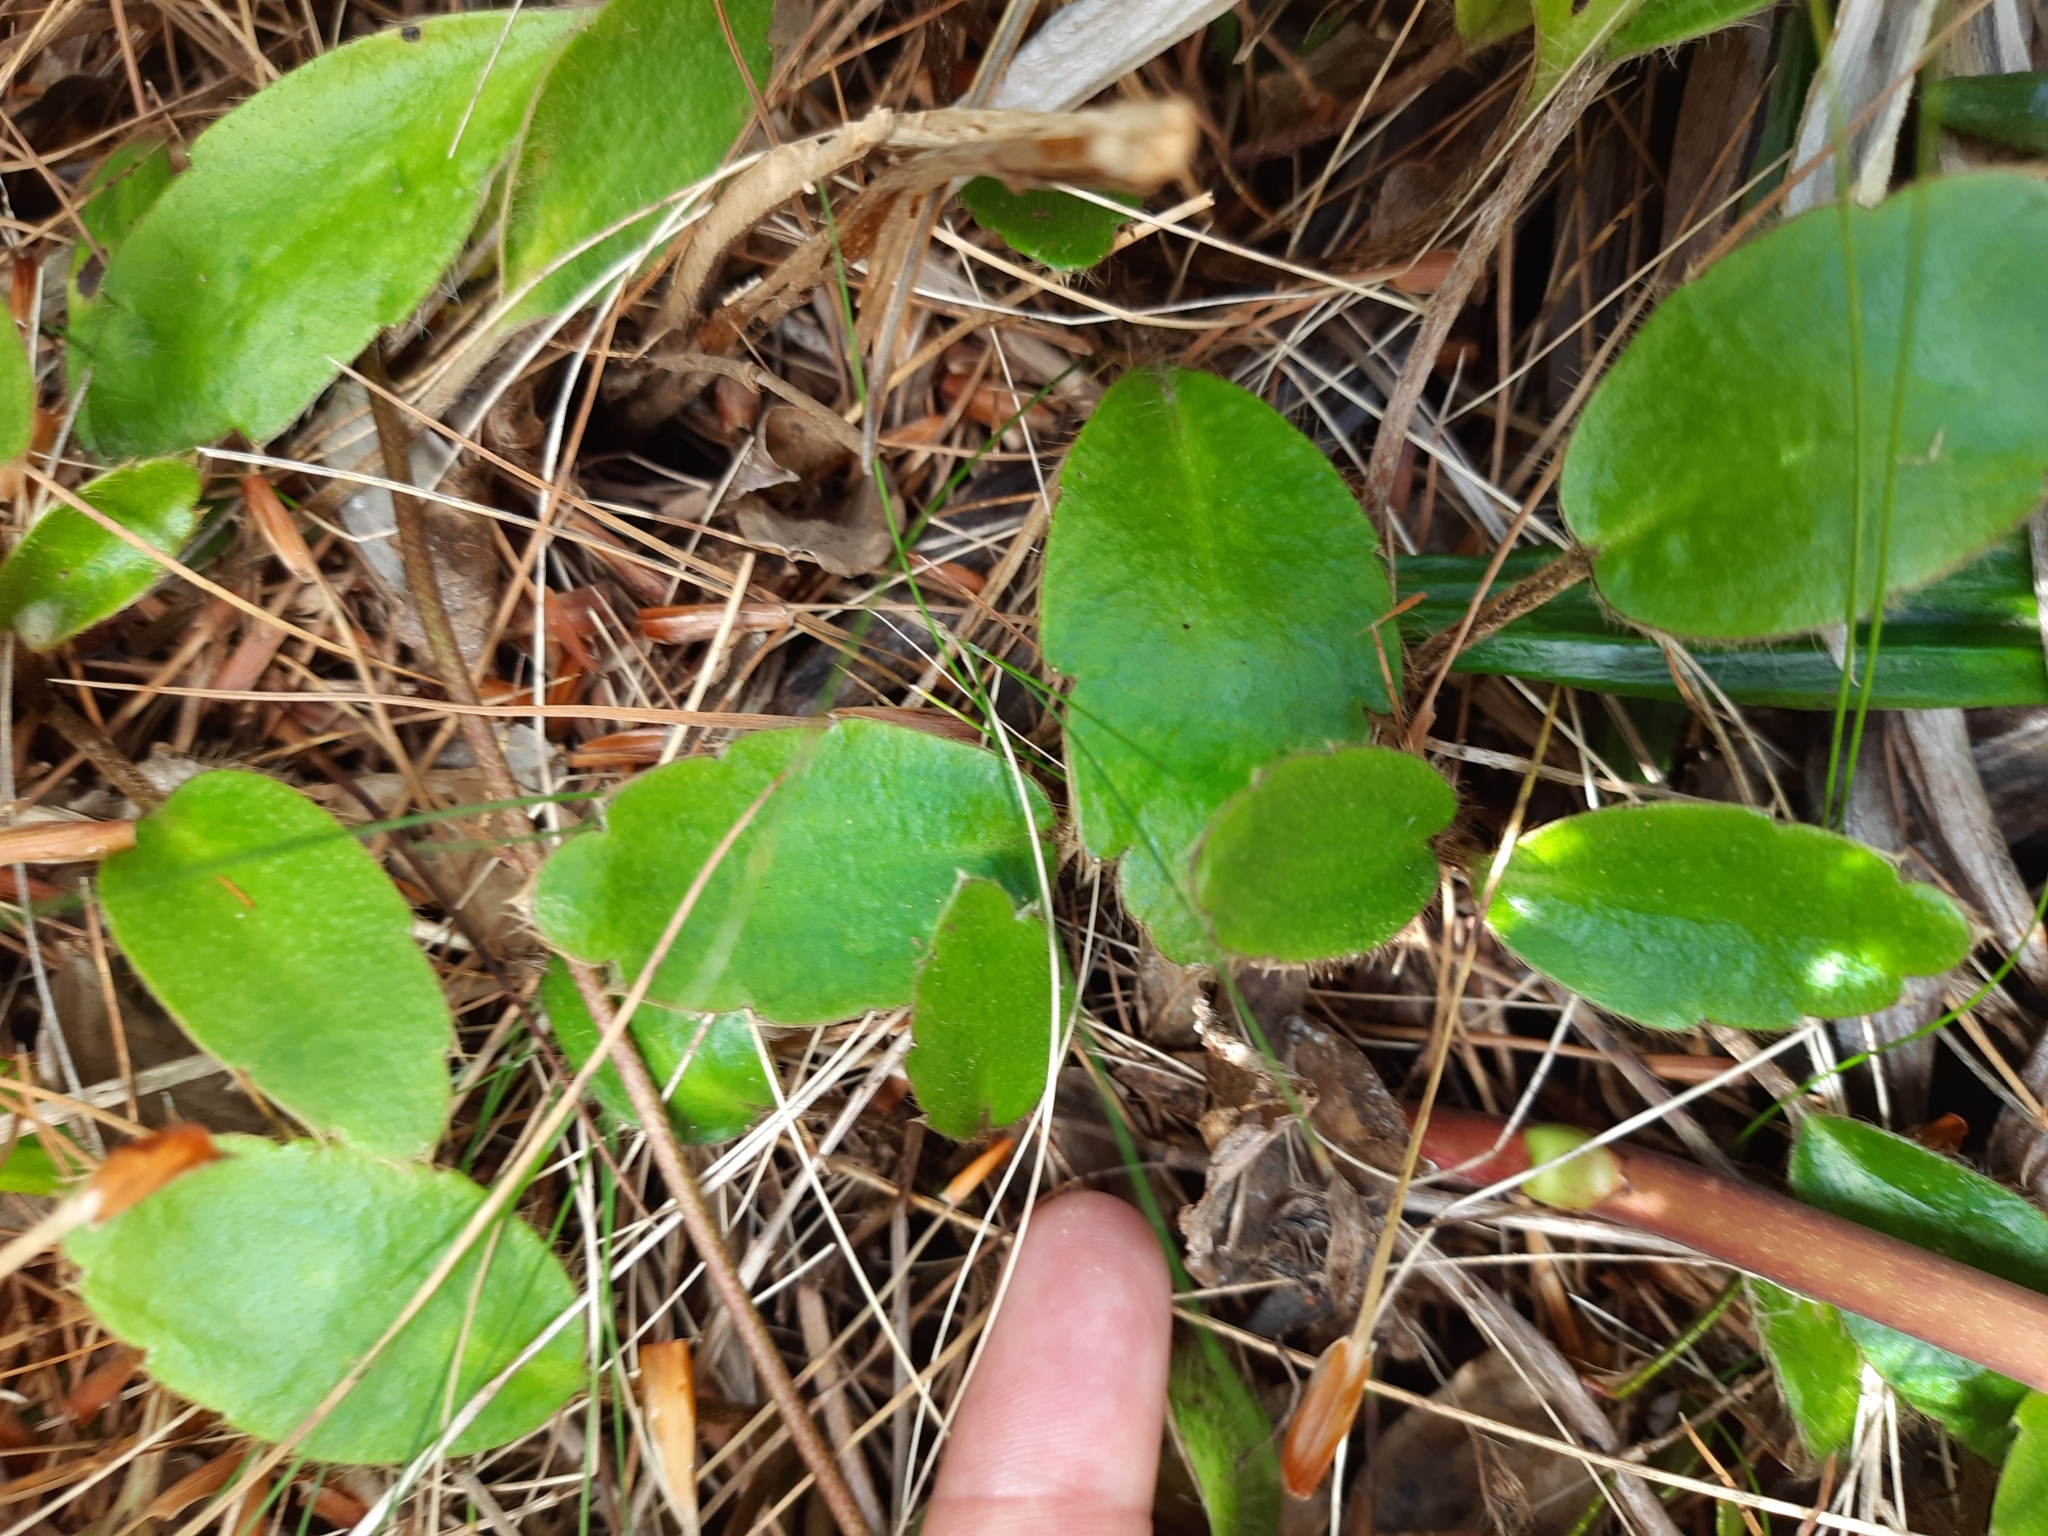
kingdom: Plantae
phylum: Tracheophyta
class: Magnoliopsida
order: Ranunculales
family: Ranunculaceae
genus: Ranunculus
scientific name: Ranunculus insignis
